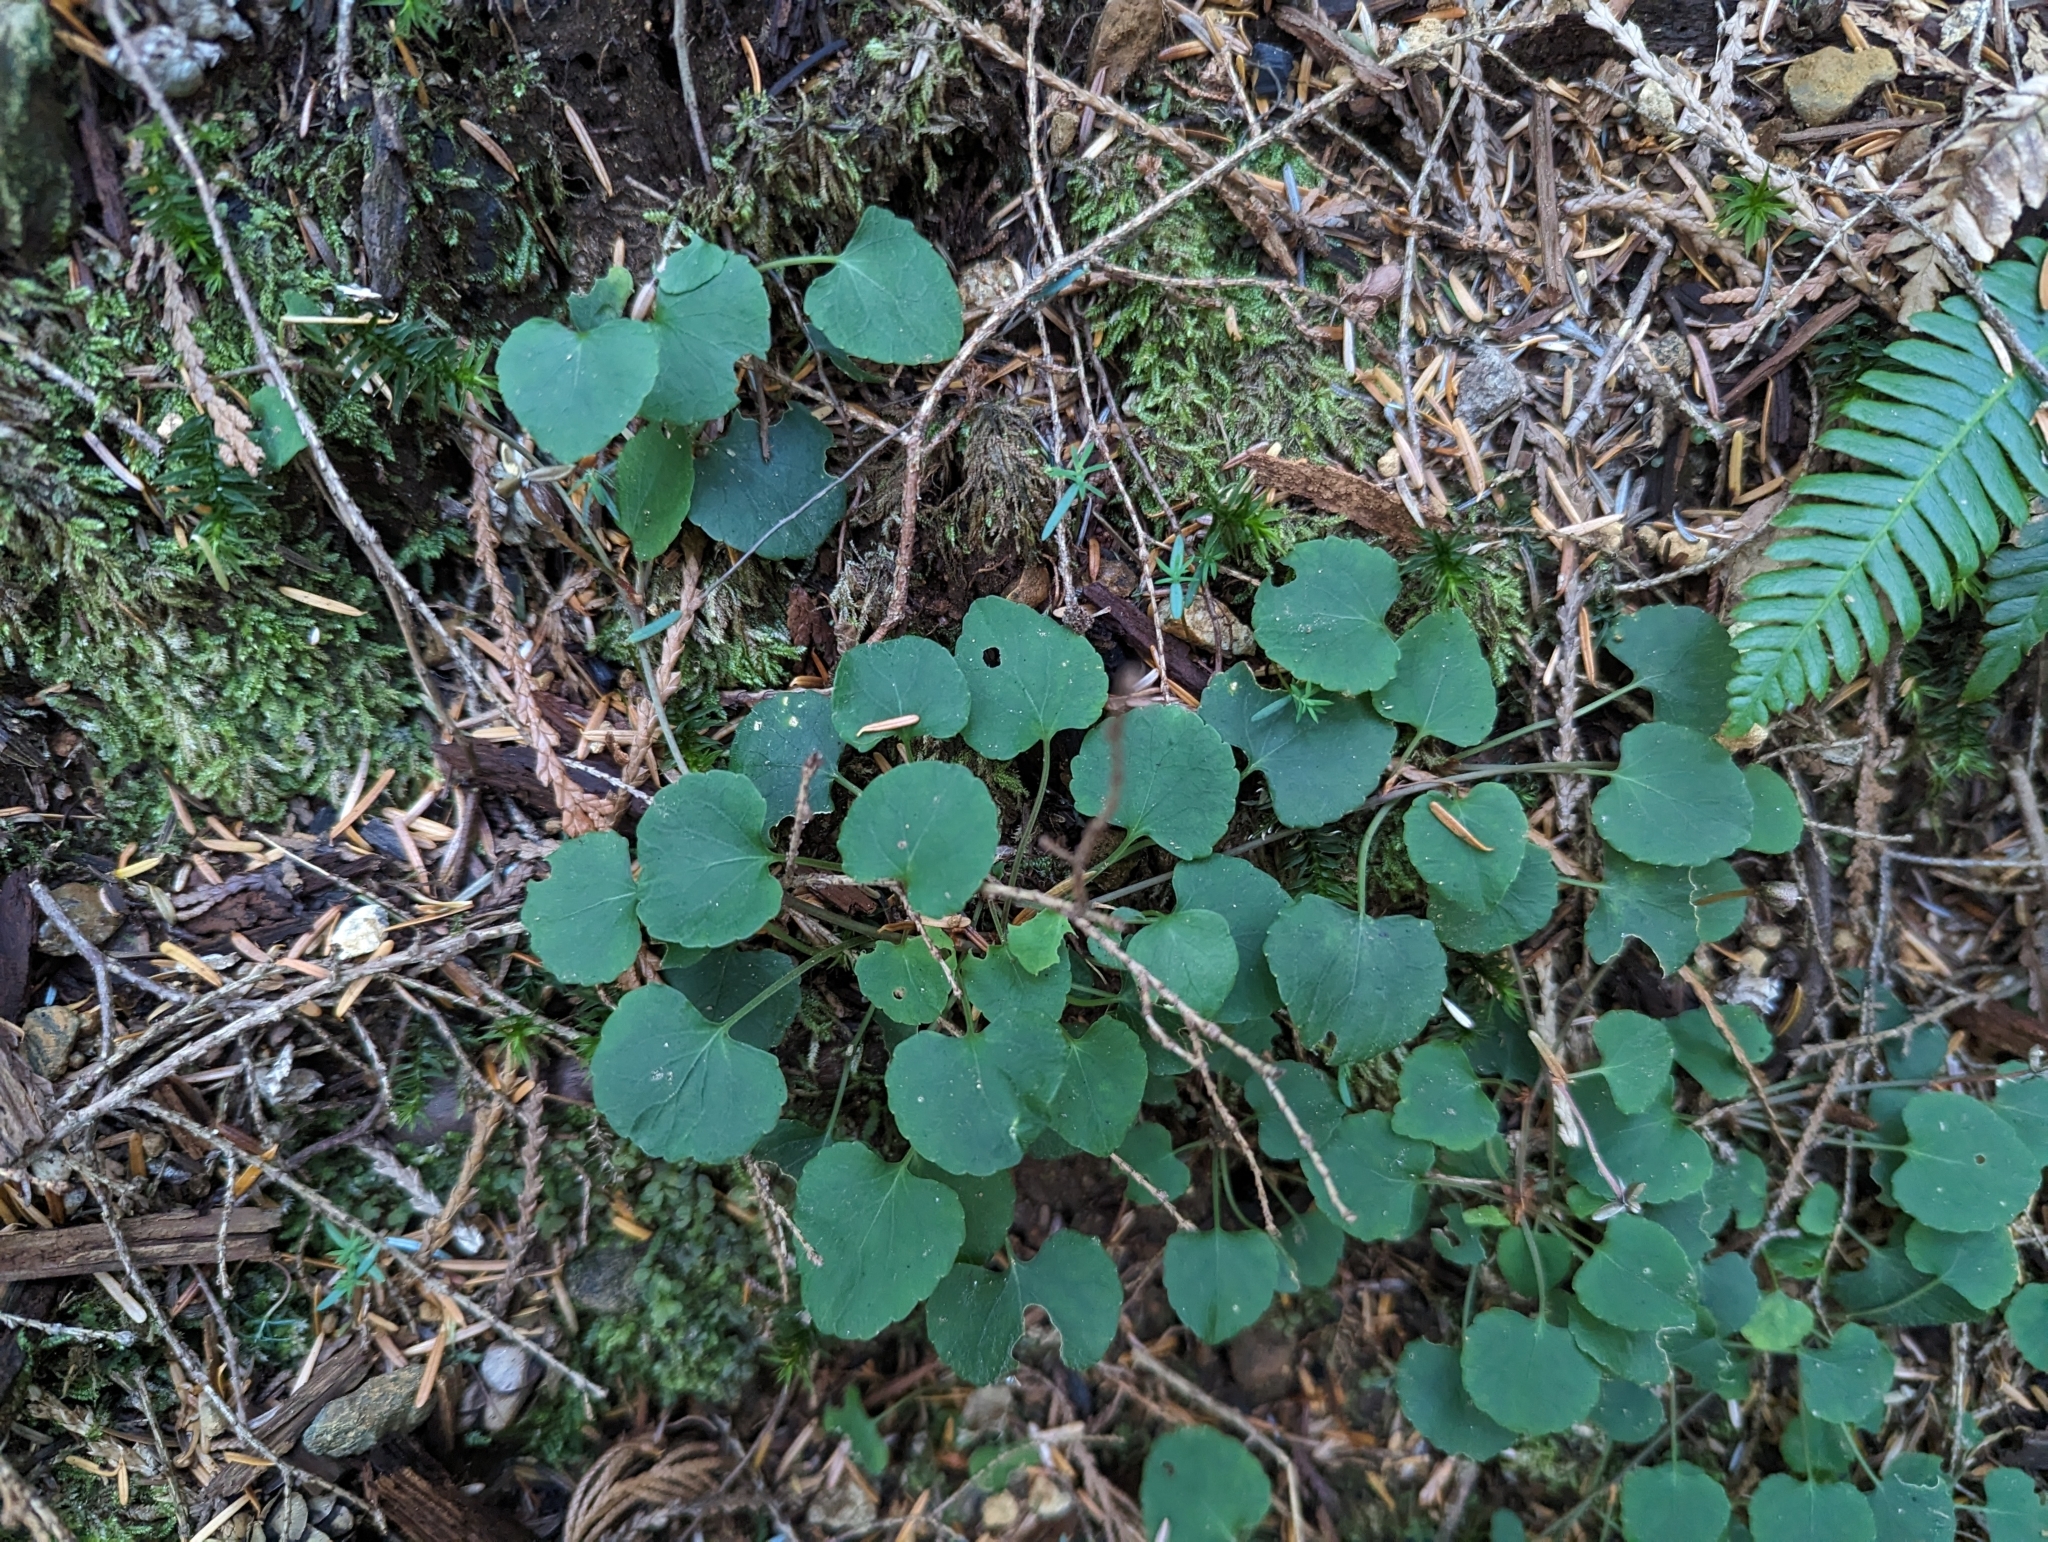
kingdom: Plantae
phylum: Tracheophyta
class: Magnoliopsida
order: Malpighiales
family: Violaceae
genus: Viola
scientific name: Viola sempervirens
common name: Evergreen violet
